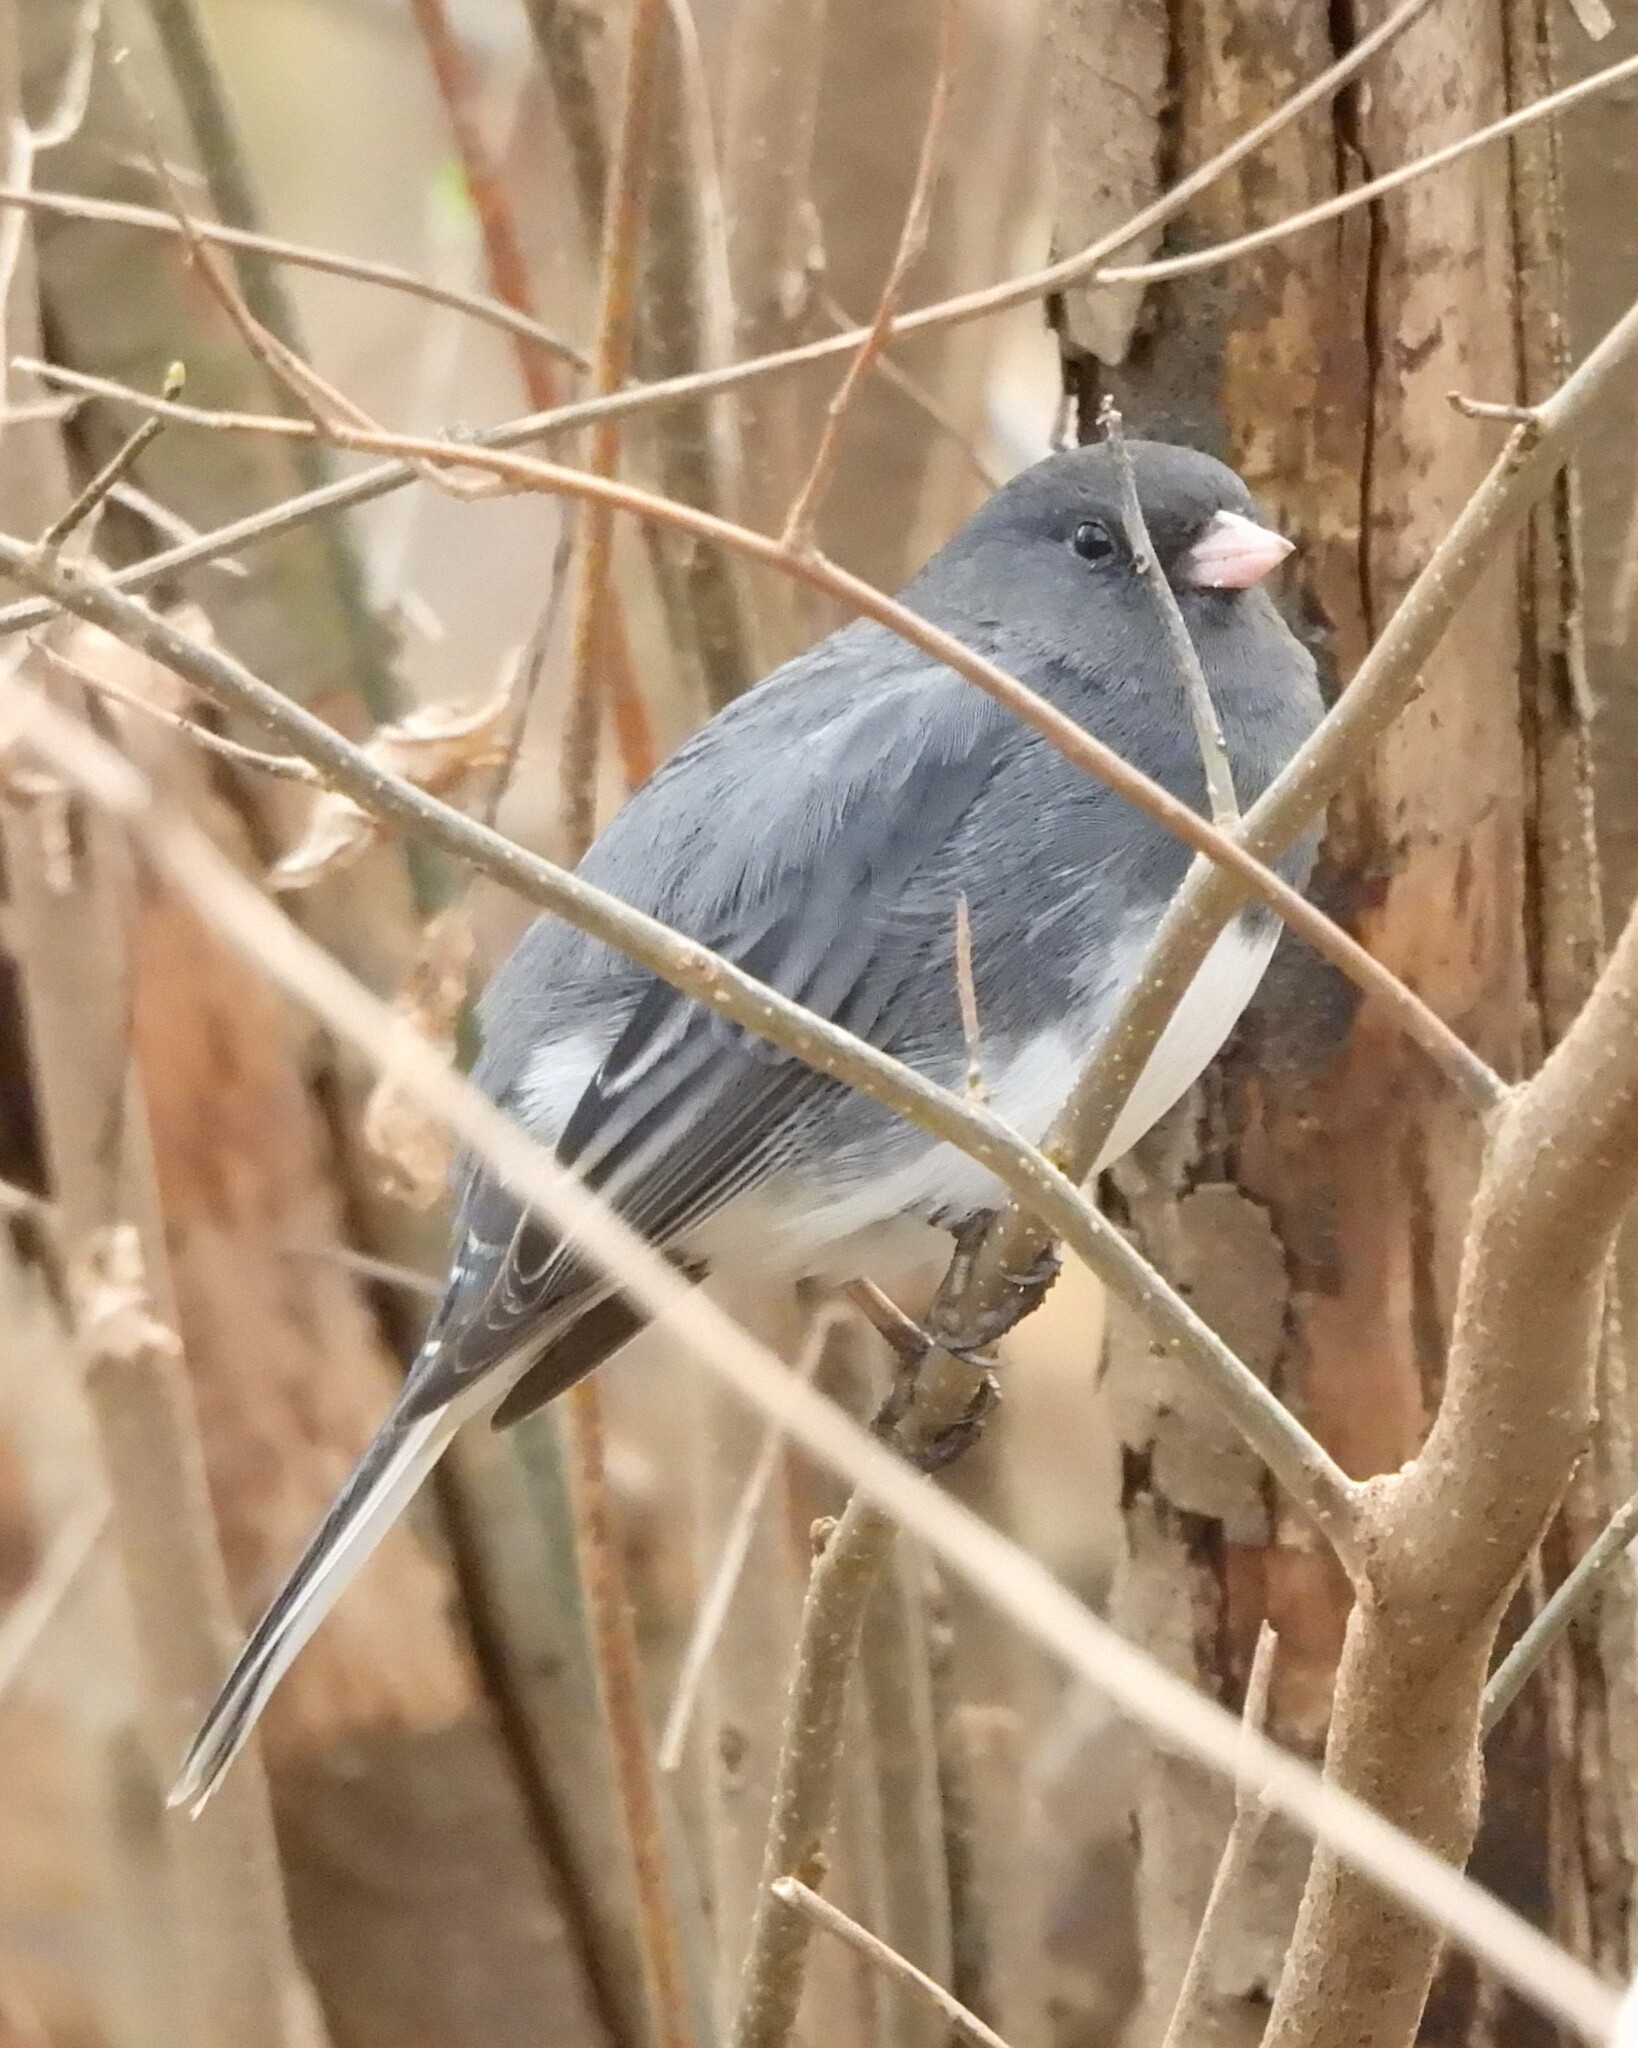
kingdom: Animalia
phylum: Chordata
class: Aves
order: Passeriformes
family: Passerellidae
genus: Junco
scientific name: Junco hyemalis
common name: Dark-eyed junco
